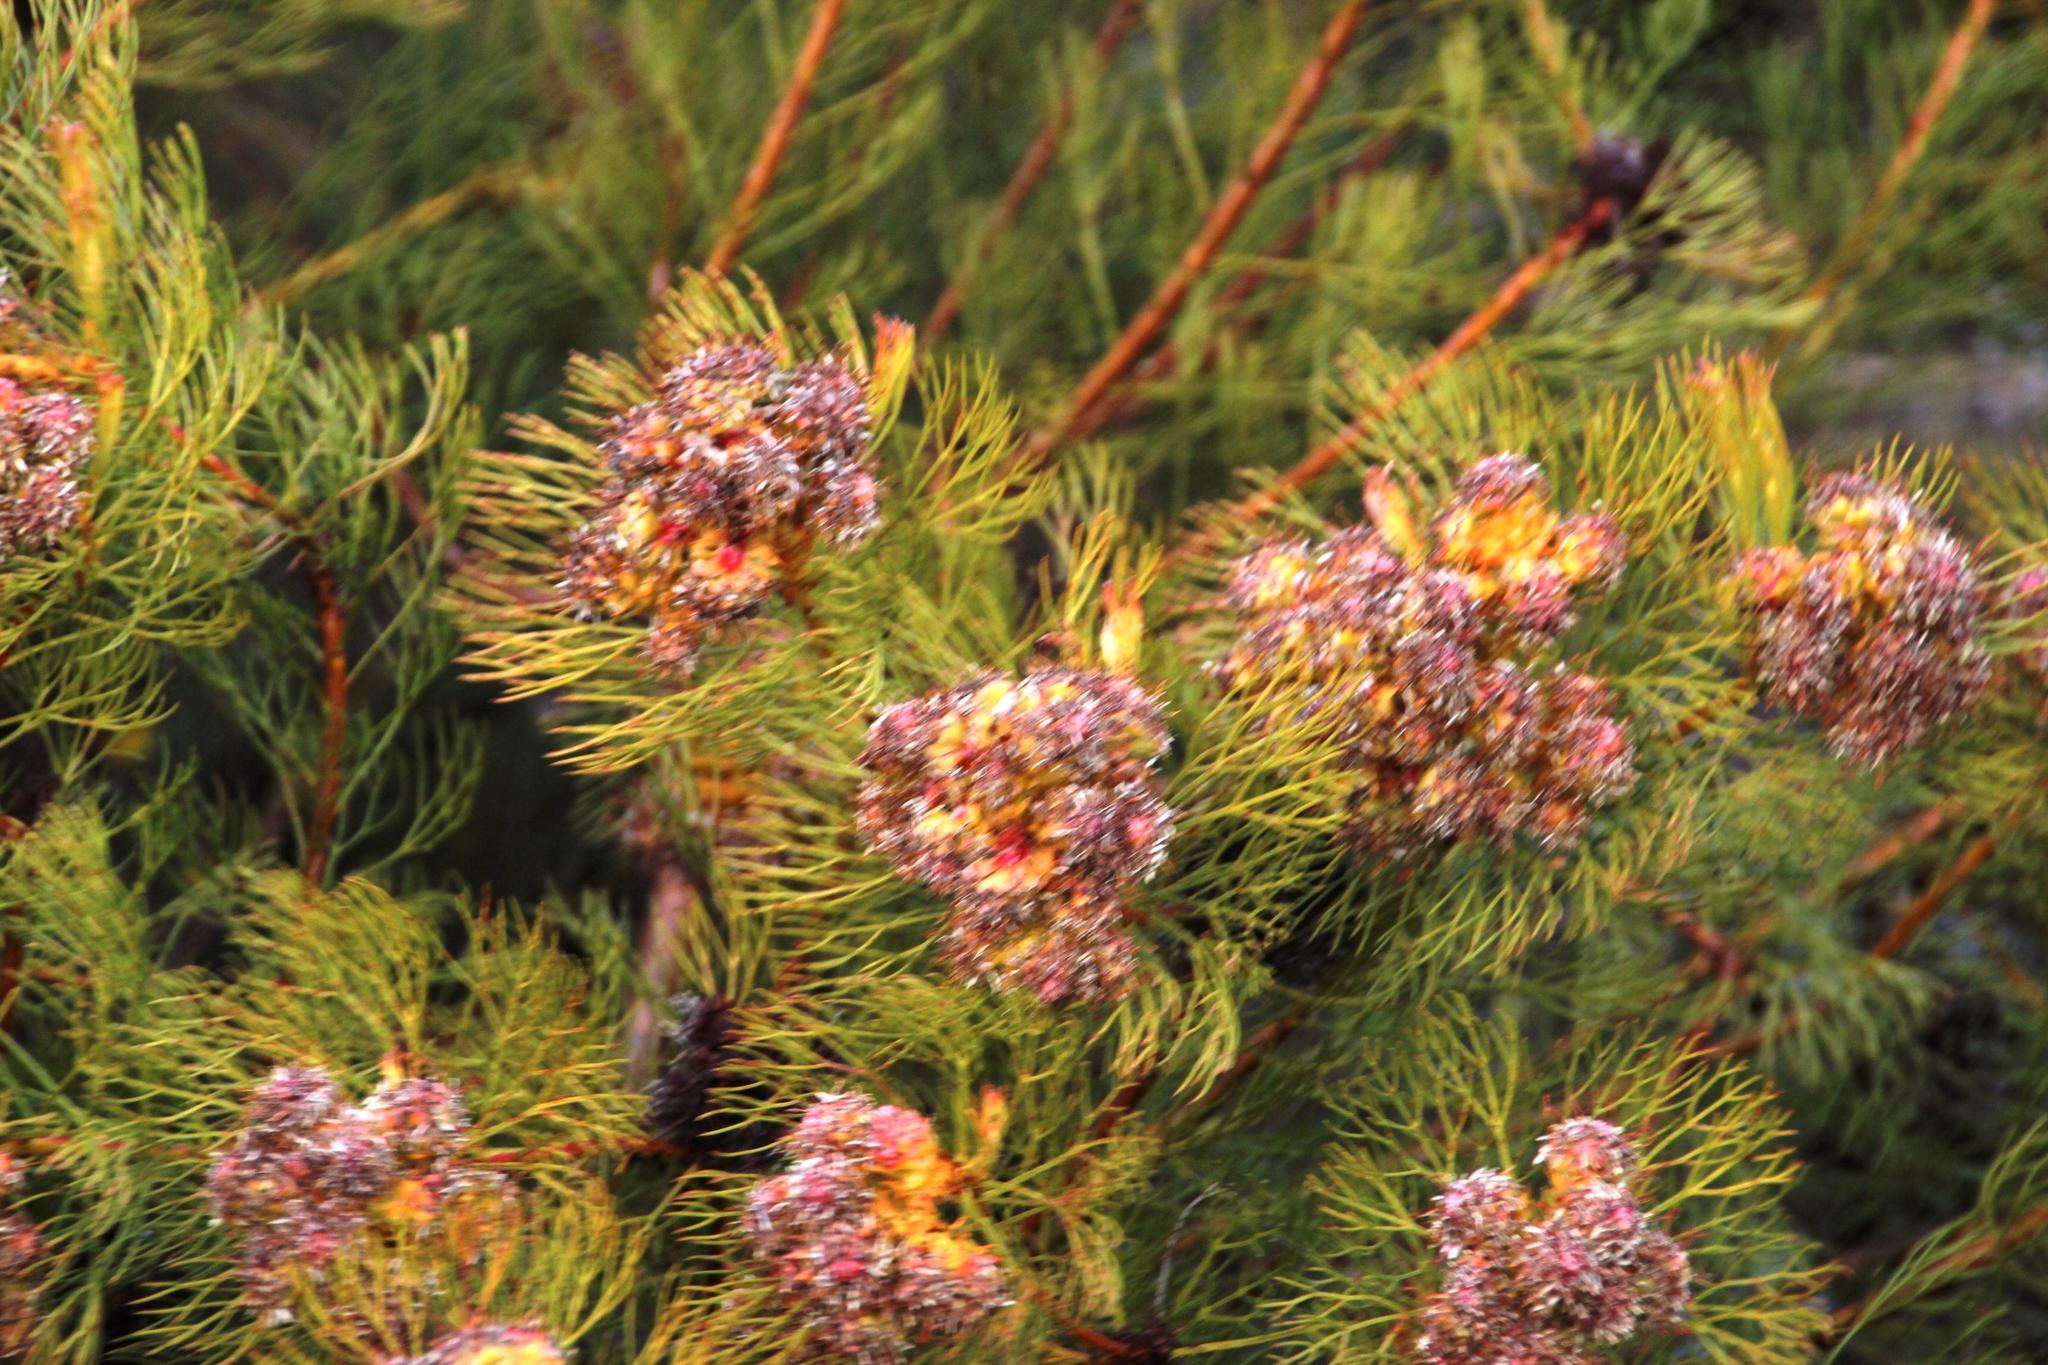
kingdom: Plantae
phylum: Tracheophyta
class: Magnoliopsida
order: Proteales
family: Proteaceae
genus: Serruria
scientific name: Serruria glomerata
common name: Cluster spiderhead
